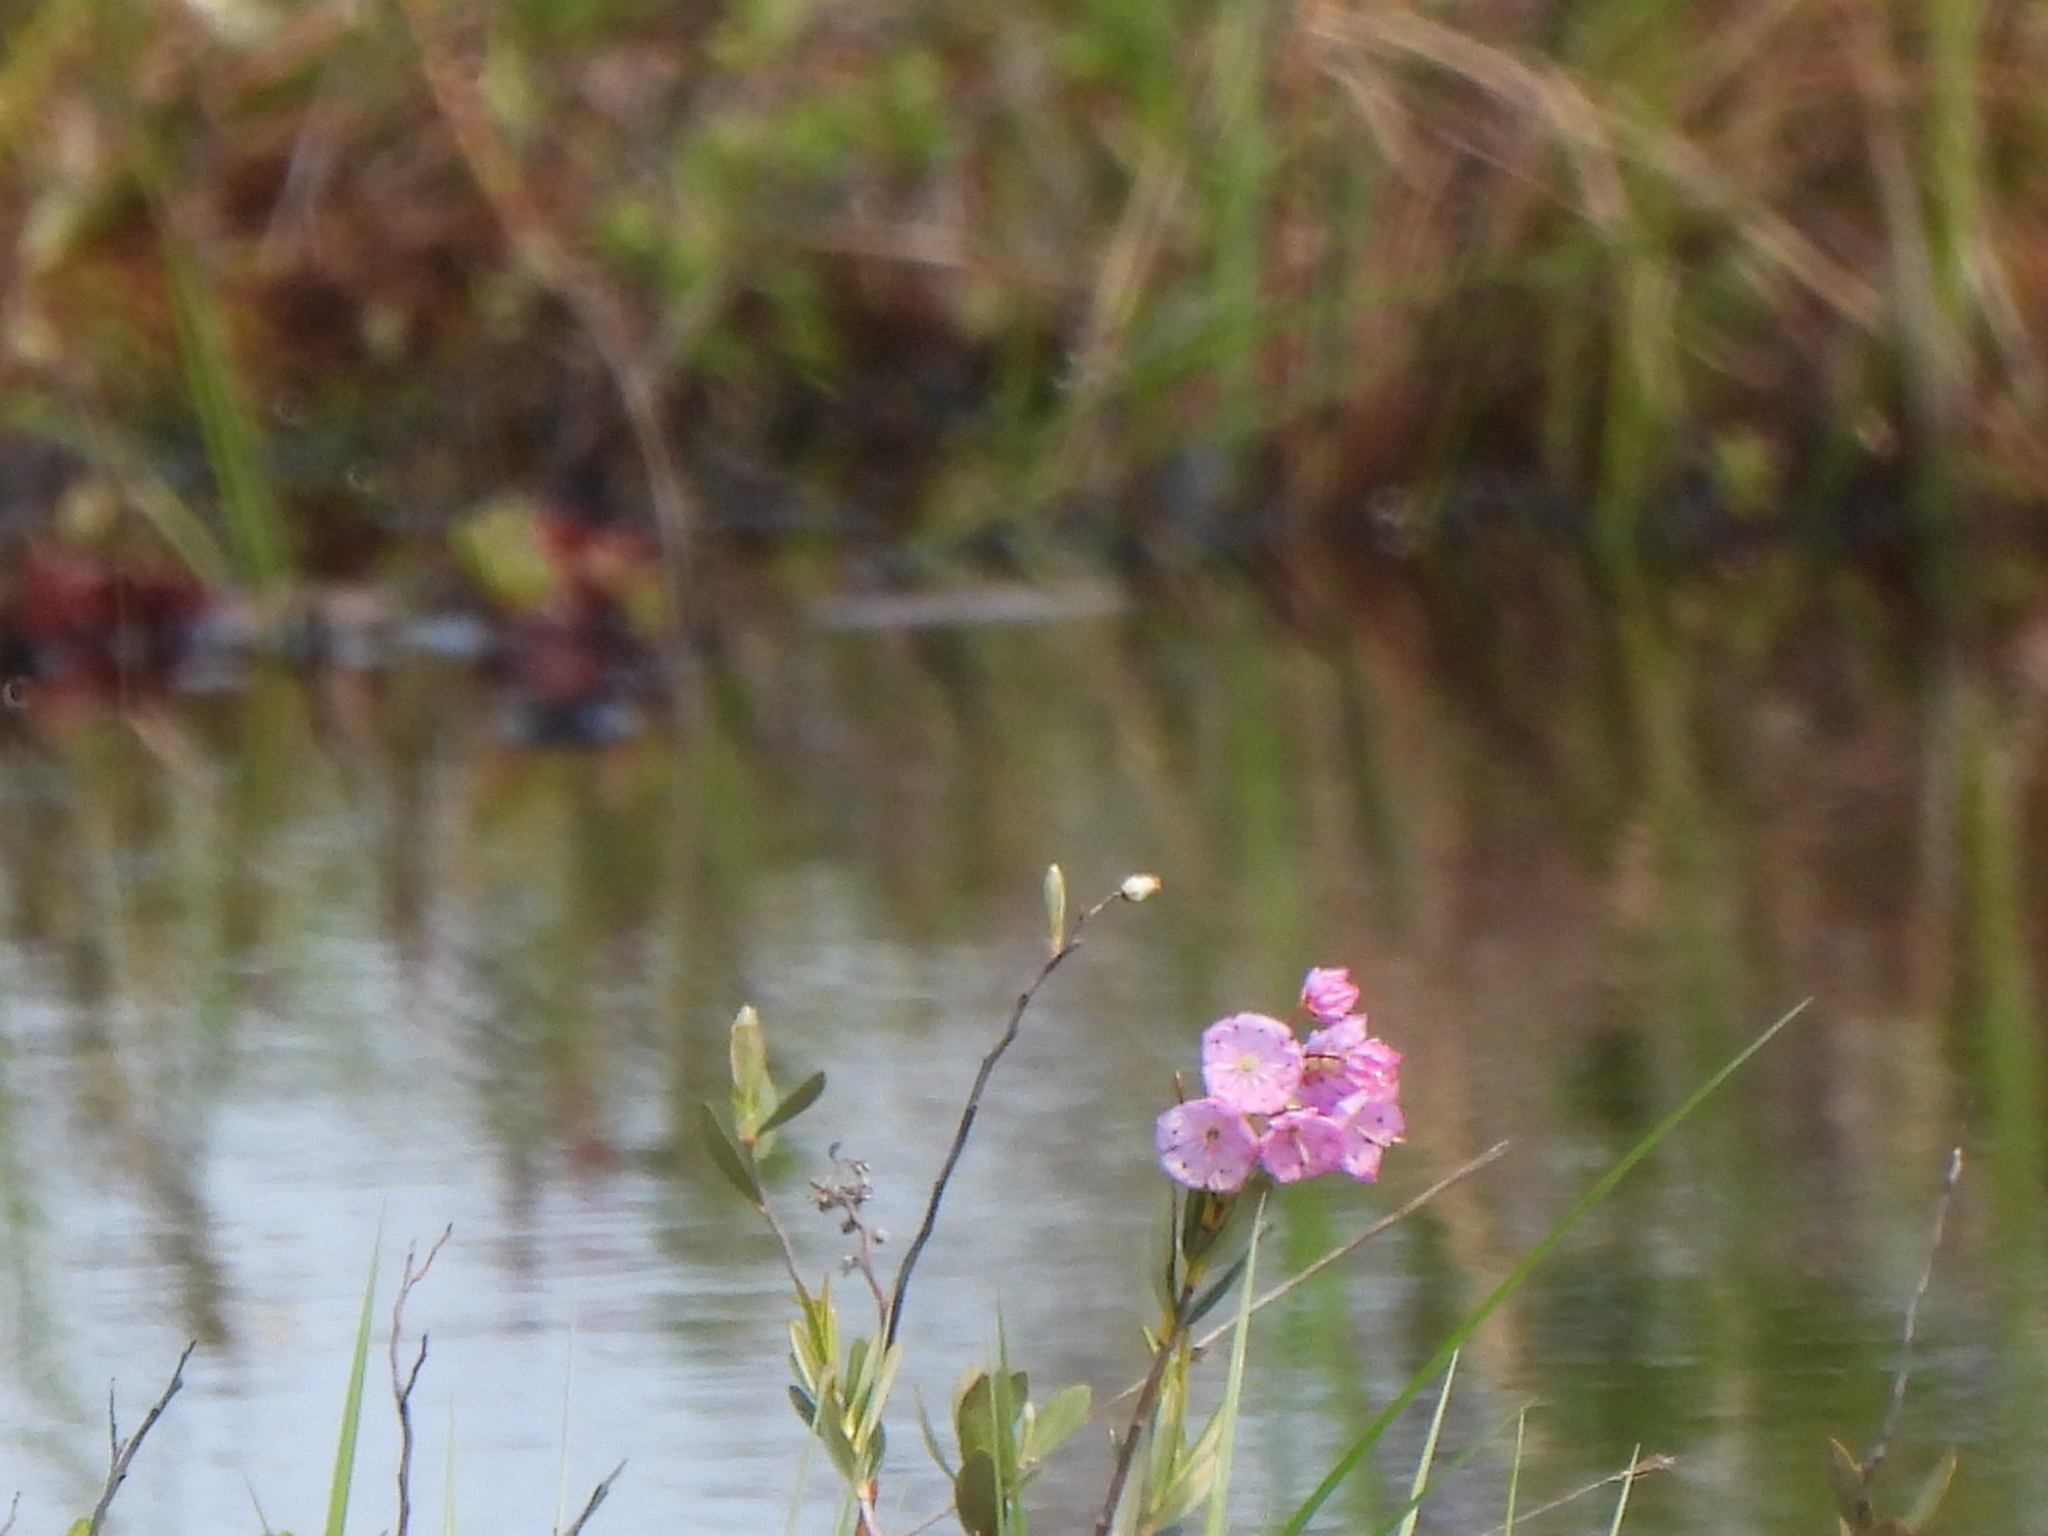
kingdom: Plantae
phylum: Tracheophyta
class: Magnoliopsida
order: Ericales
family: Ericaceae
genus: Kalmia
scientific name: Kalmia polifolia
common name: Bog-laurel
